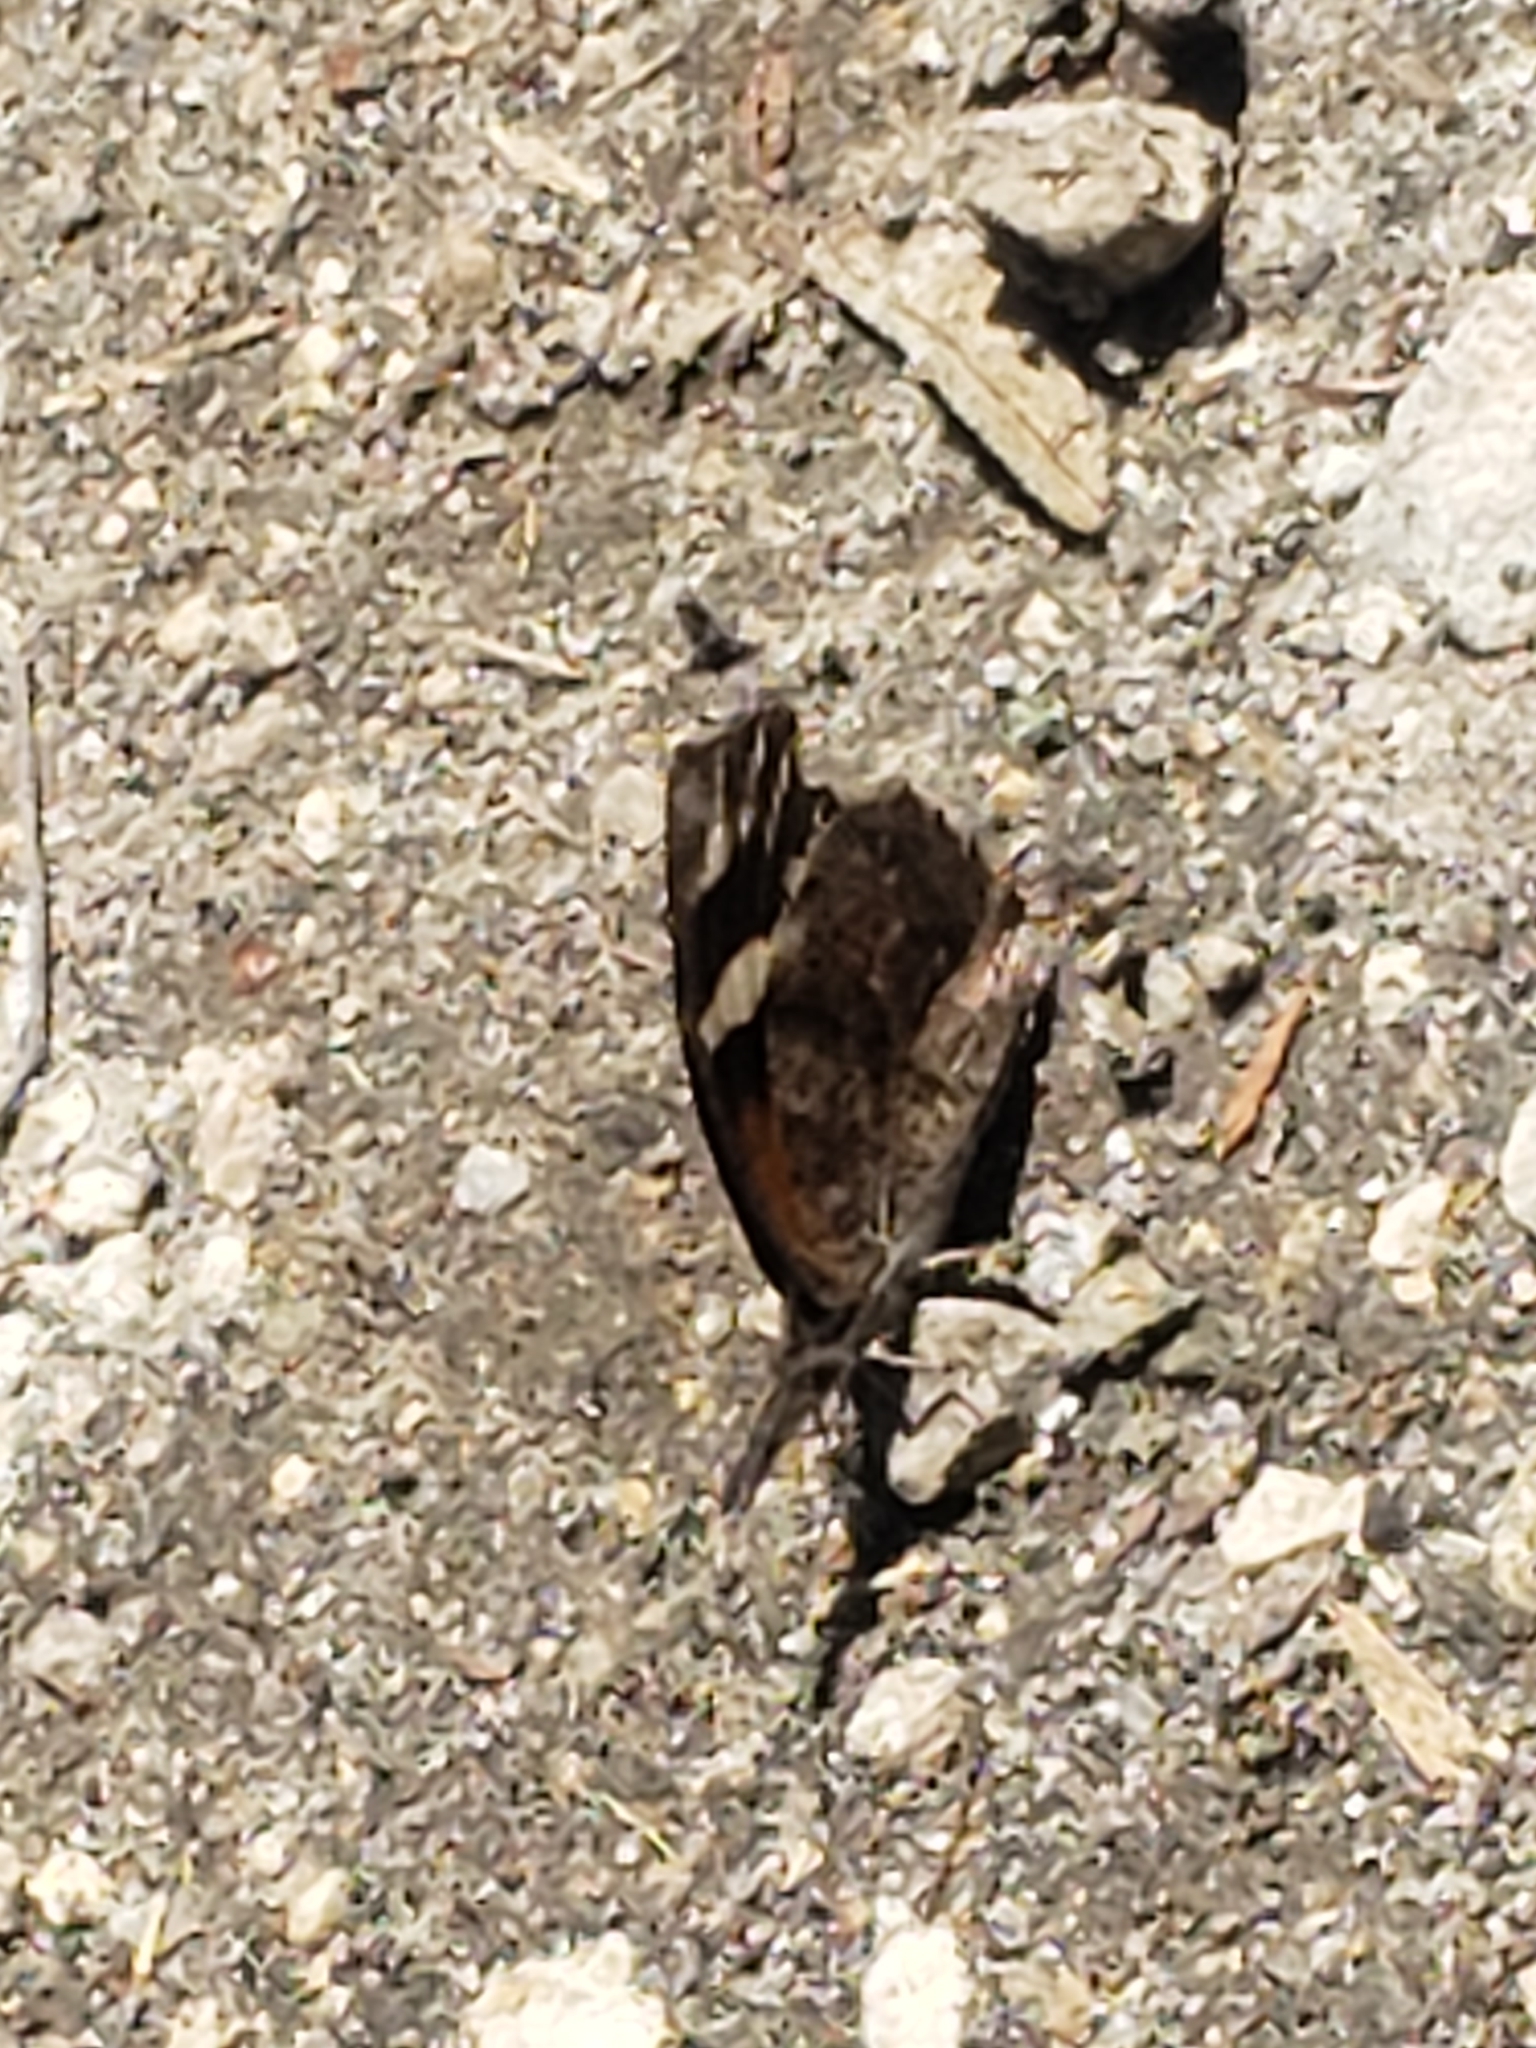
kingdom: Animalia
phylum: Arthropoda
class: Insecta
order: Lepidoptera
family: Nymphalidae
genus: Libytheana
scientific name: Libytheana carinenta
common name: American snout
